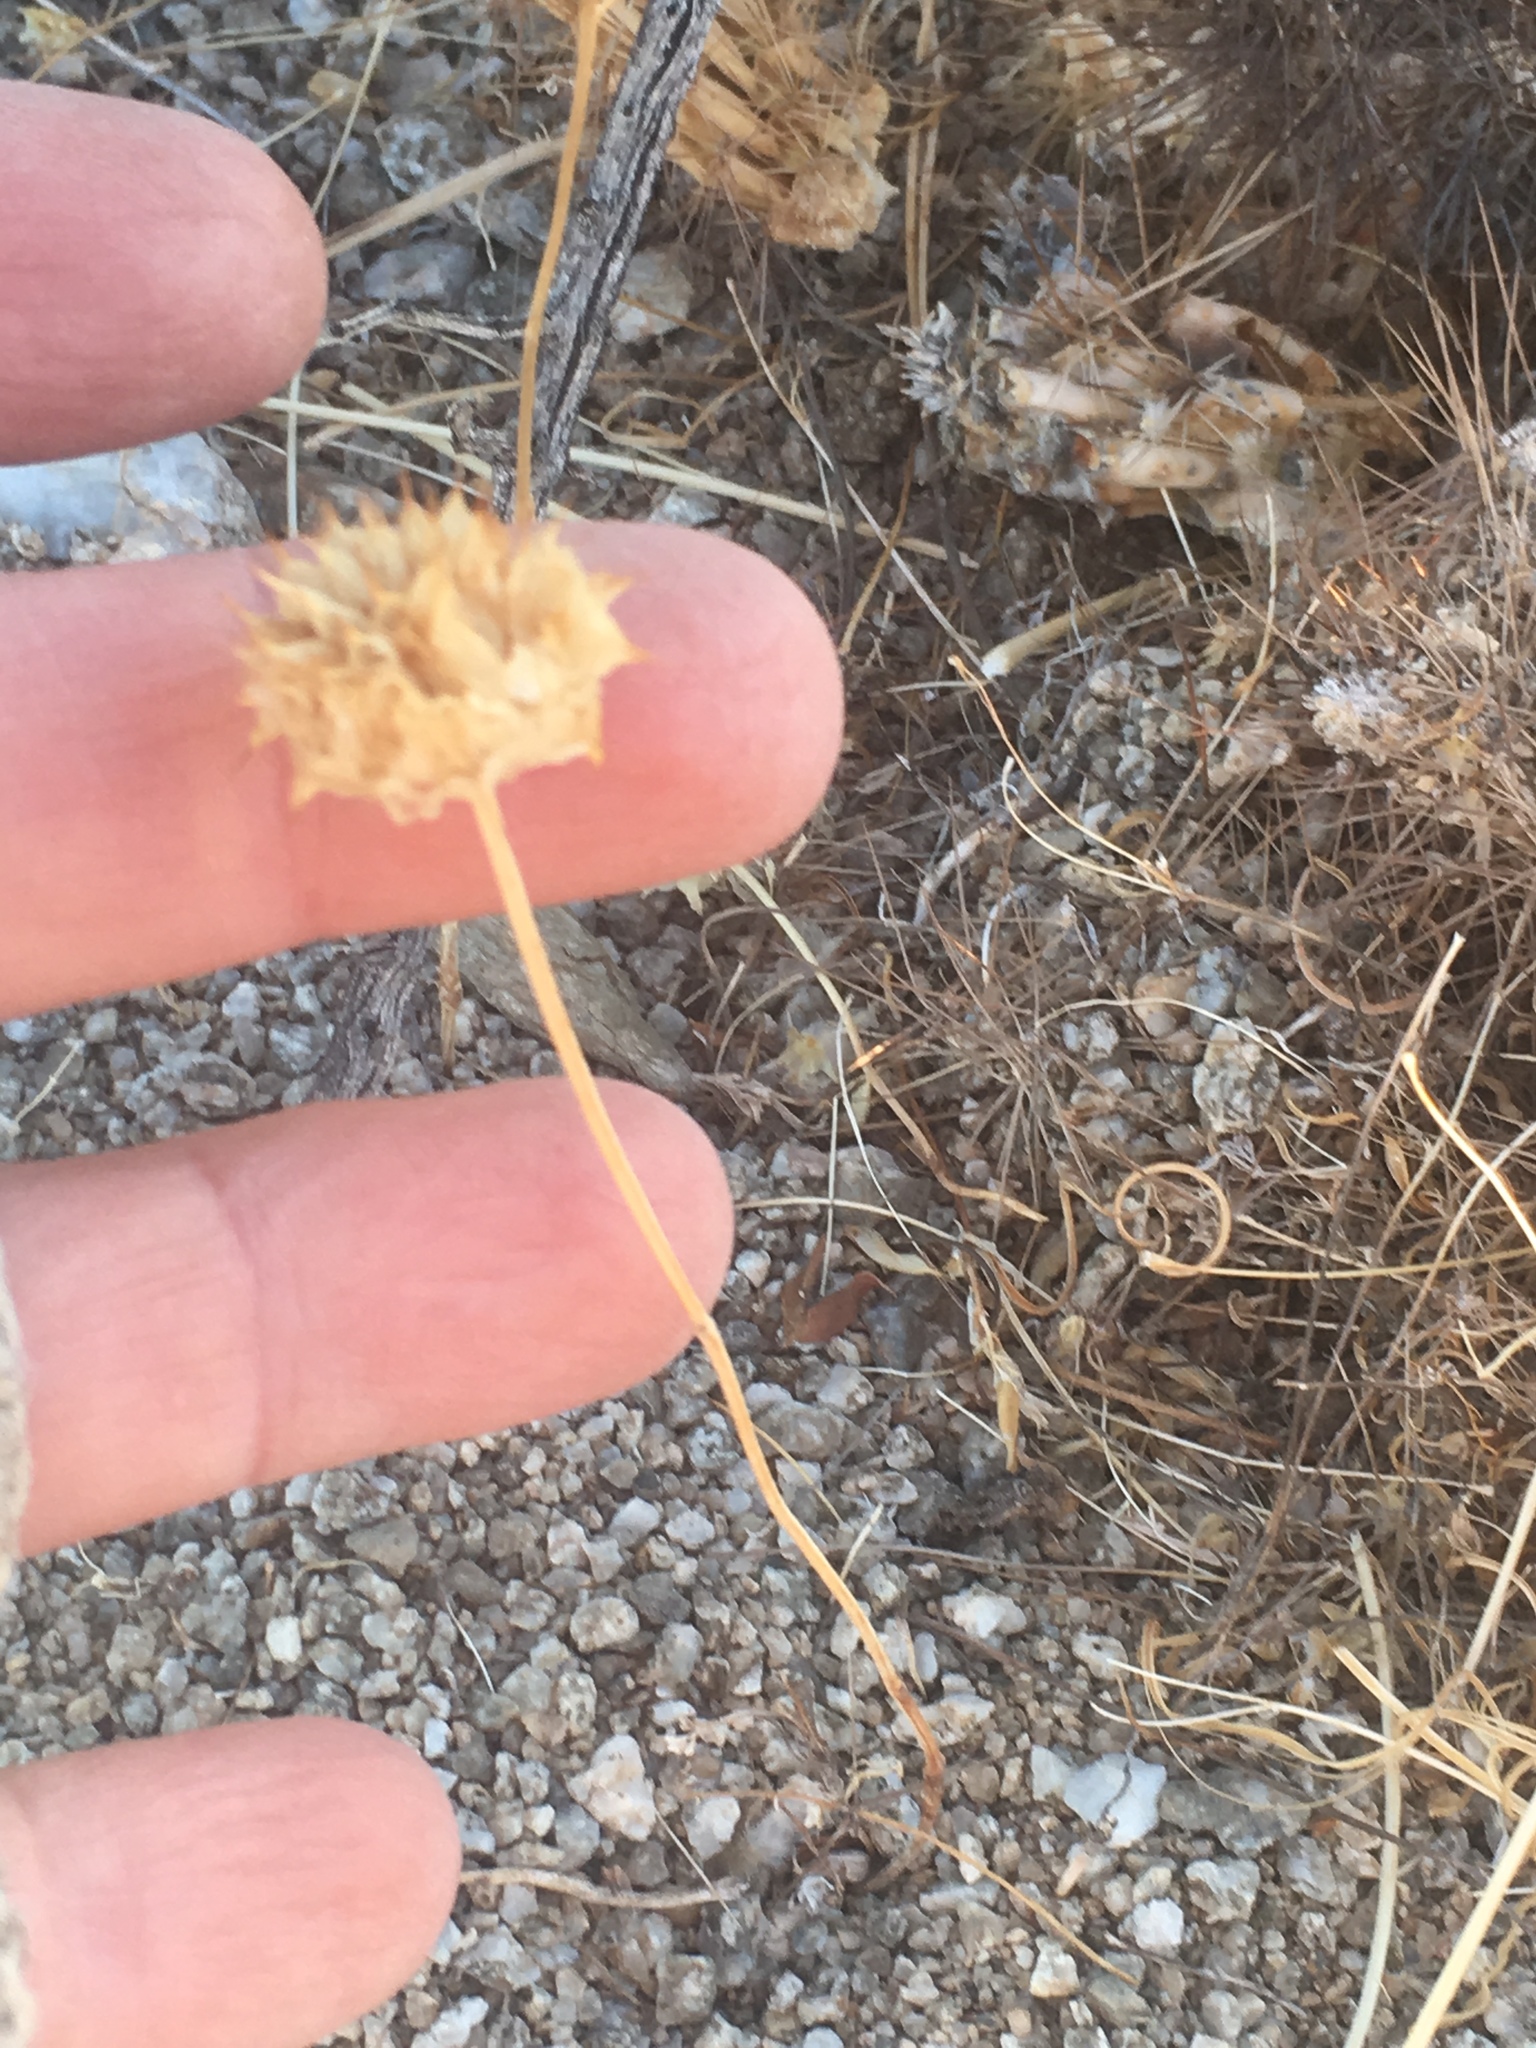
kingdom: Plantae
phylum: Tracheophyta
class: Magnoliopsida
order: Lamiales
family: Lamiaceae
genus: Salvia
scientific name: Salvia columbariae
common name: Chia
